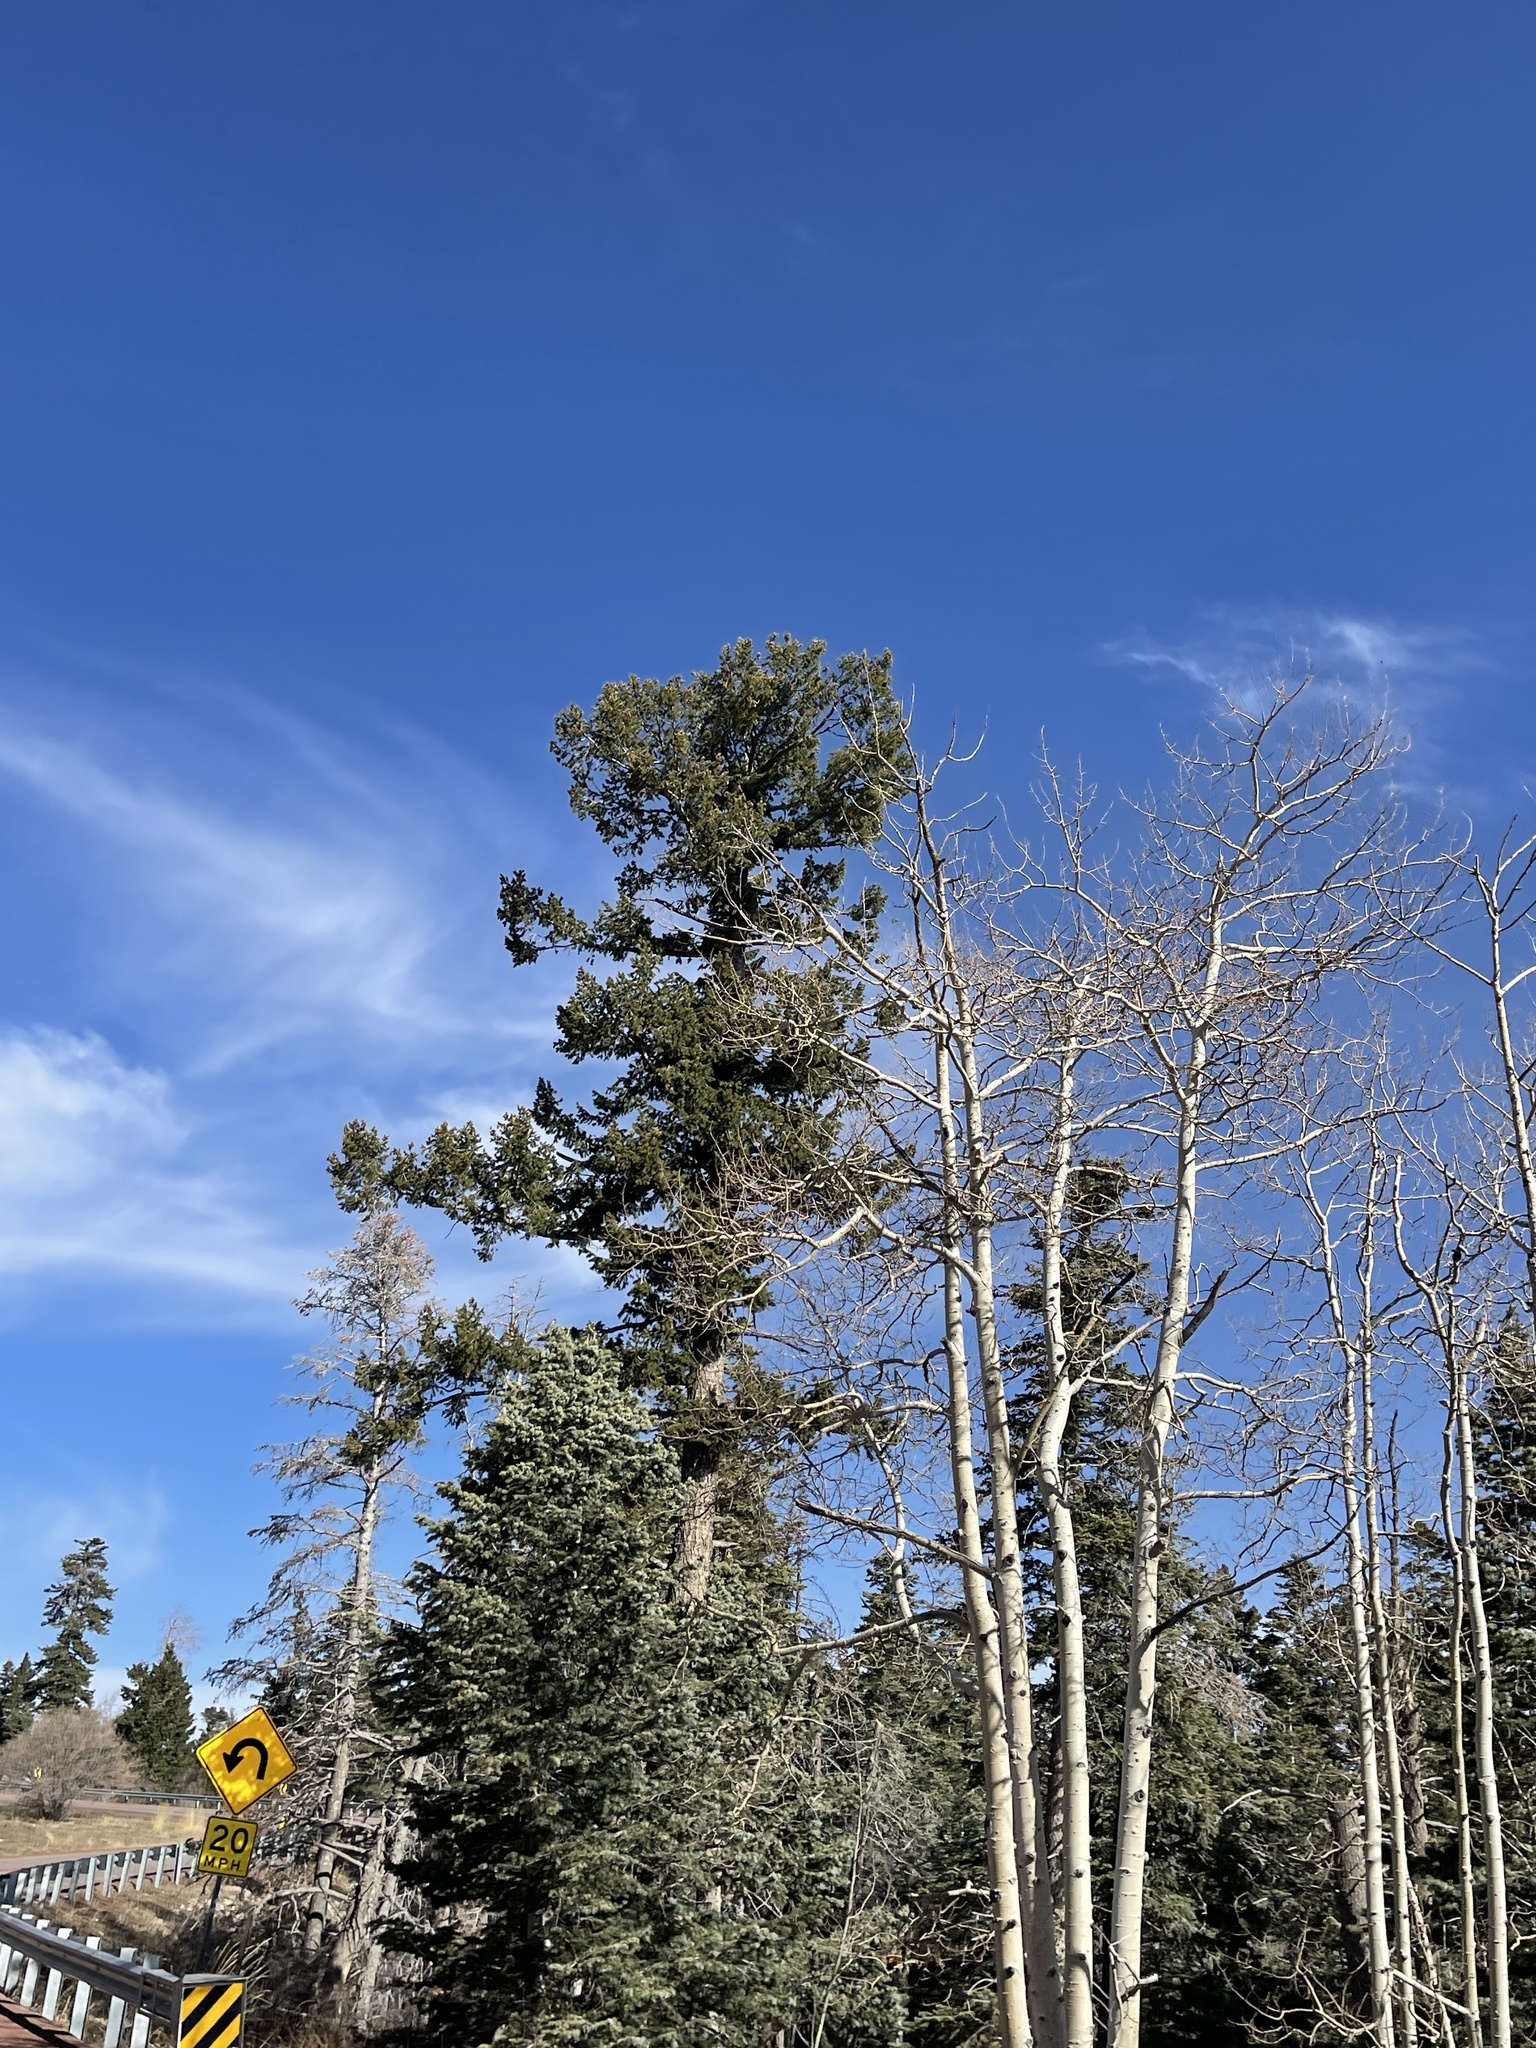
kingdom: Plantae
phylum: Tracheophyta
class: Magnoliopsida
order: Malpighiales
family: Salicaceae
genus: Populus
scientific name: Populus tremuloides
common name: Quaking aspen
